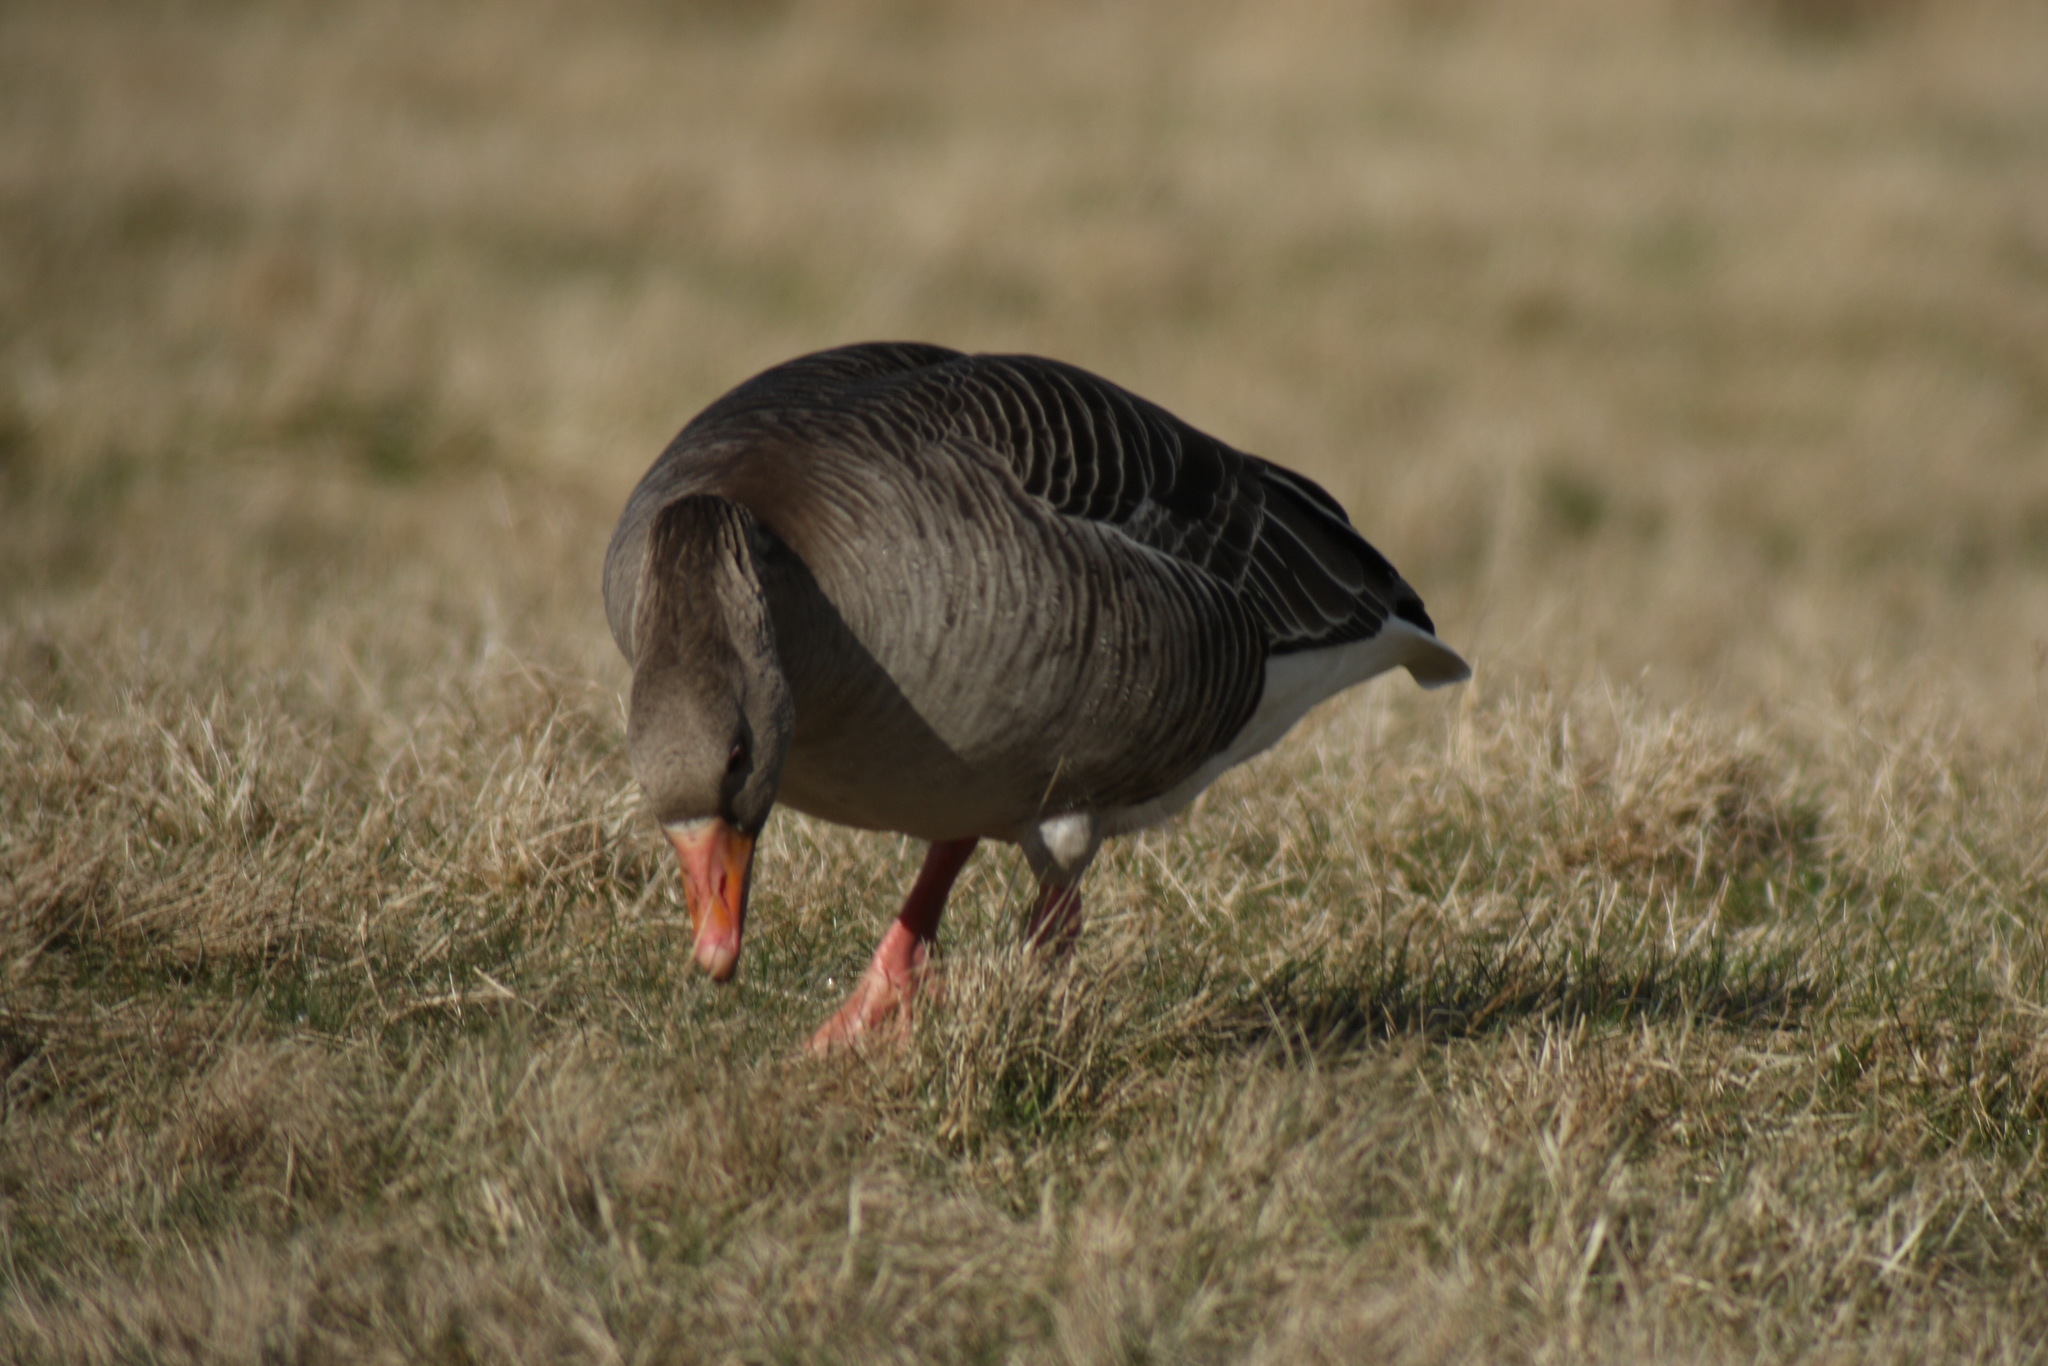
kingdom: Animalia
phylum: Chordata
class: Aves
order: Anseriformes
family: Anatidae
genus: Anser
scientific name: Anser anser
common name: Greylag goose
